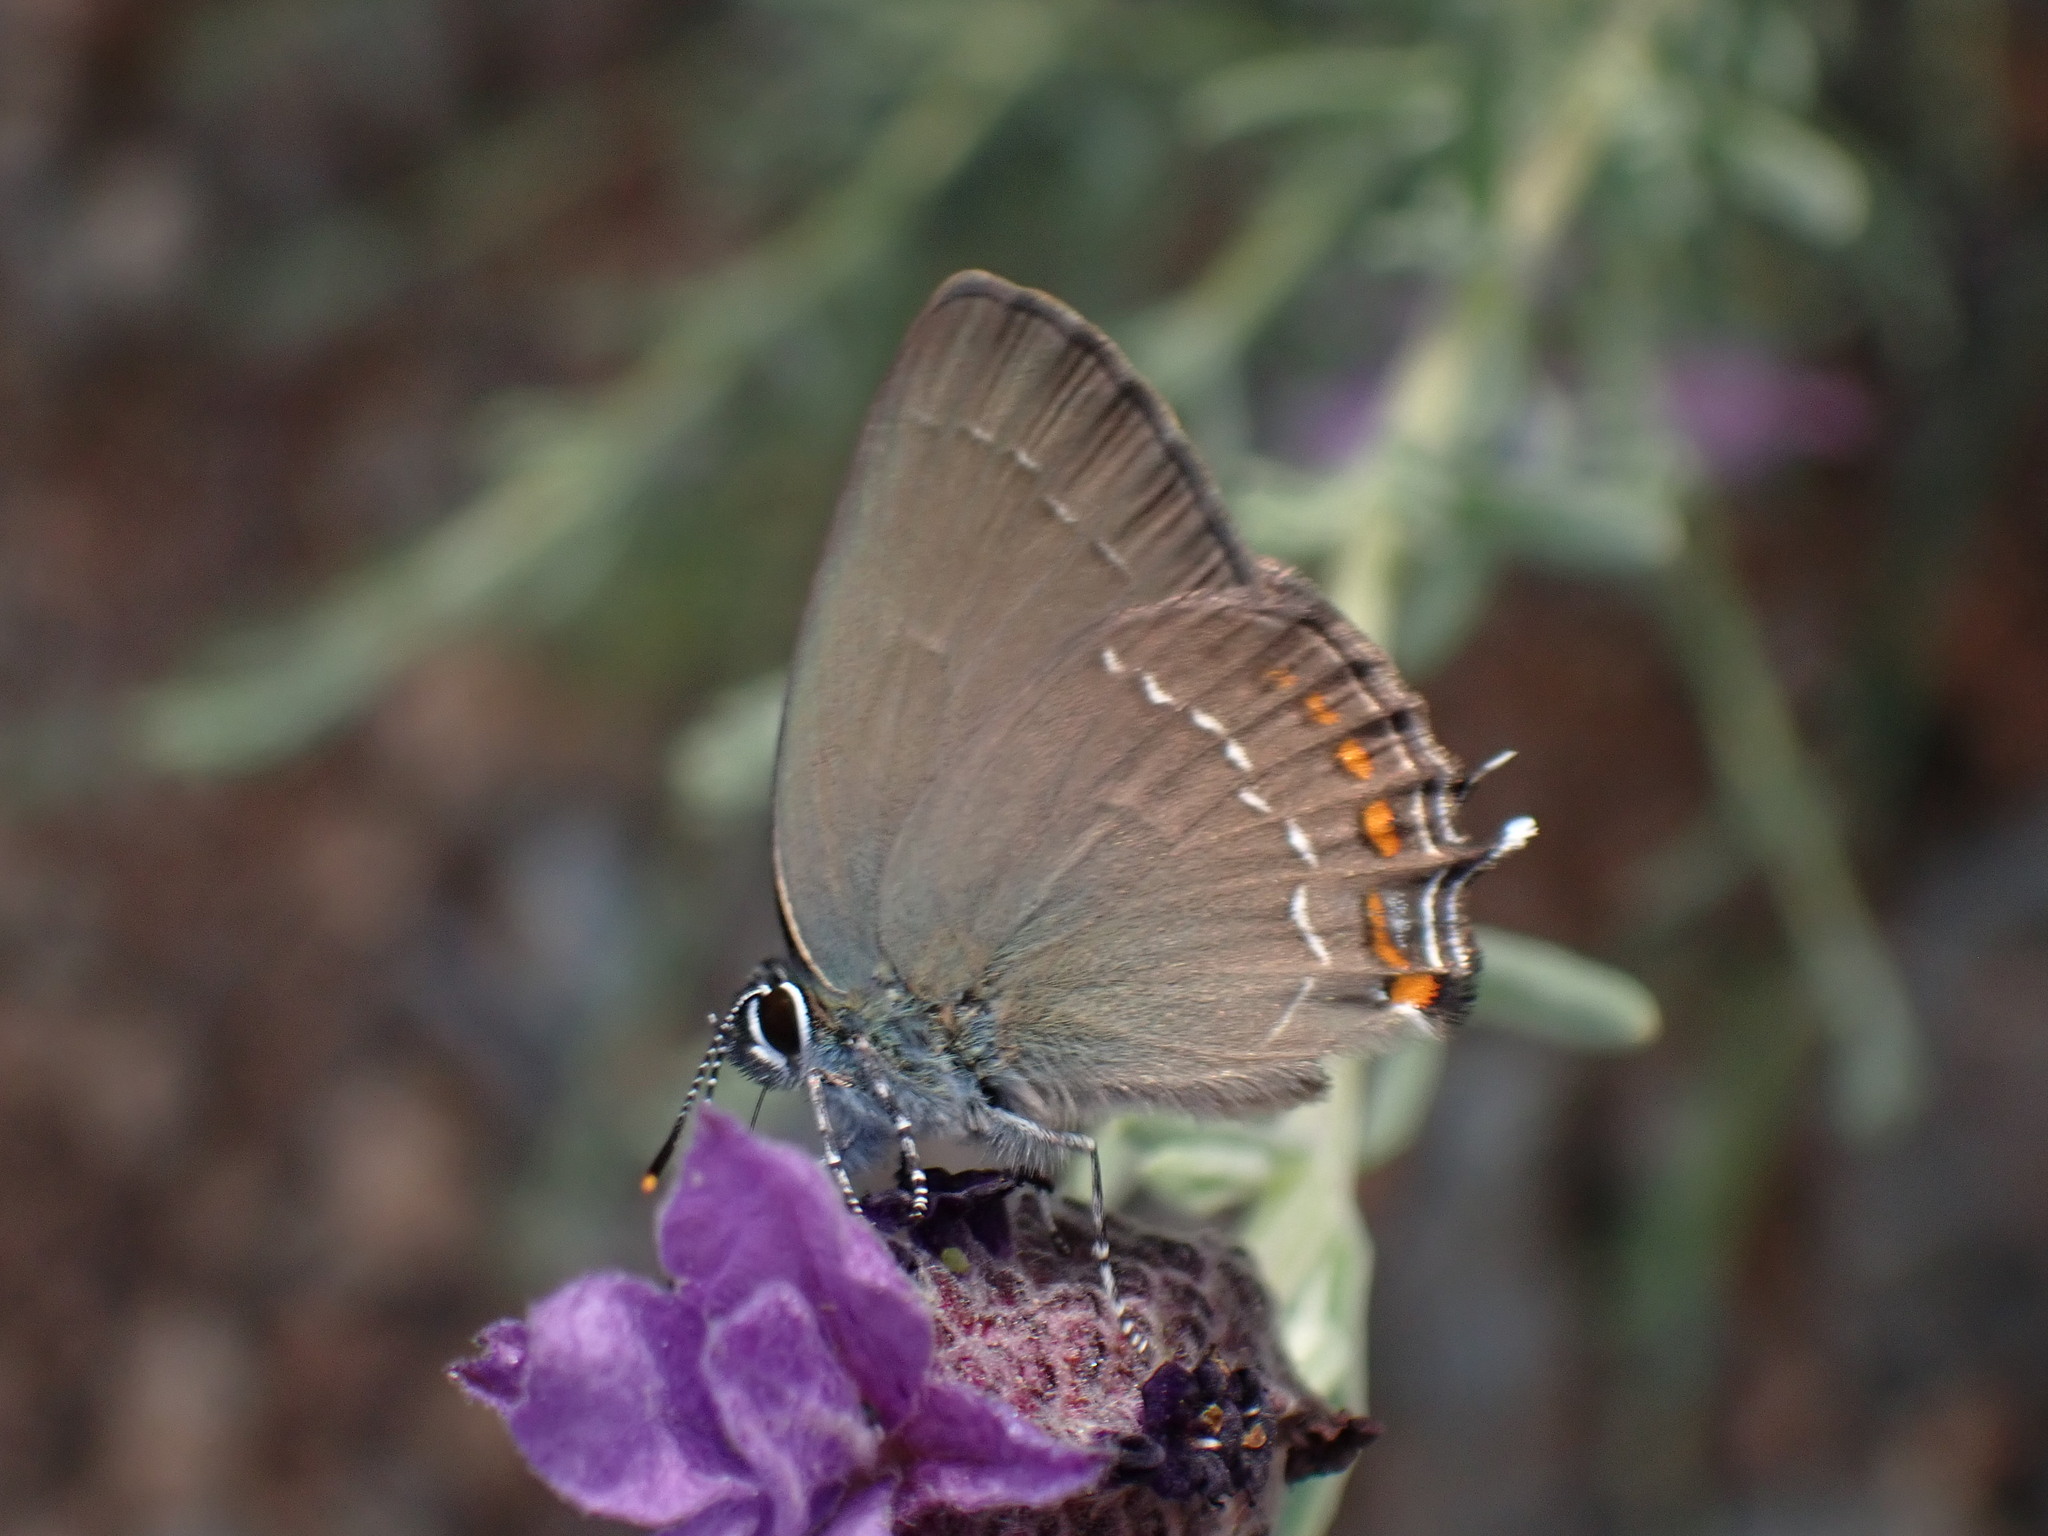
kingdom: Animalia
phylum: Arthropoda
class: Insecta
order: Lepidoptera
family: Lycaenidae
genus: Nordmannia
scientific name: Nordmannia ilicis
